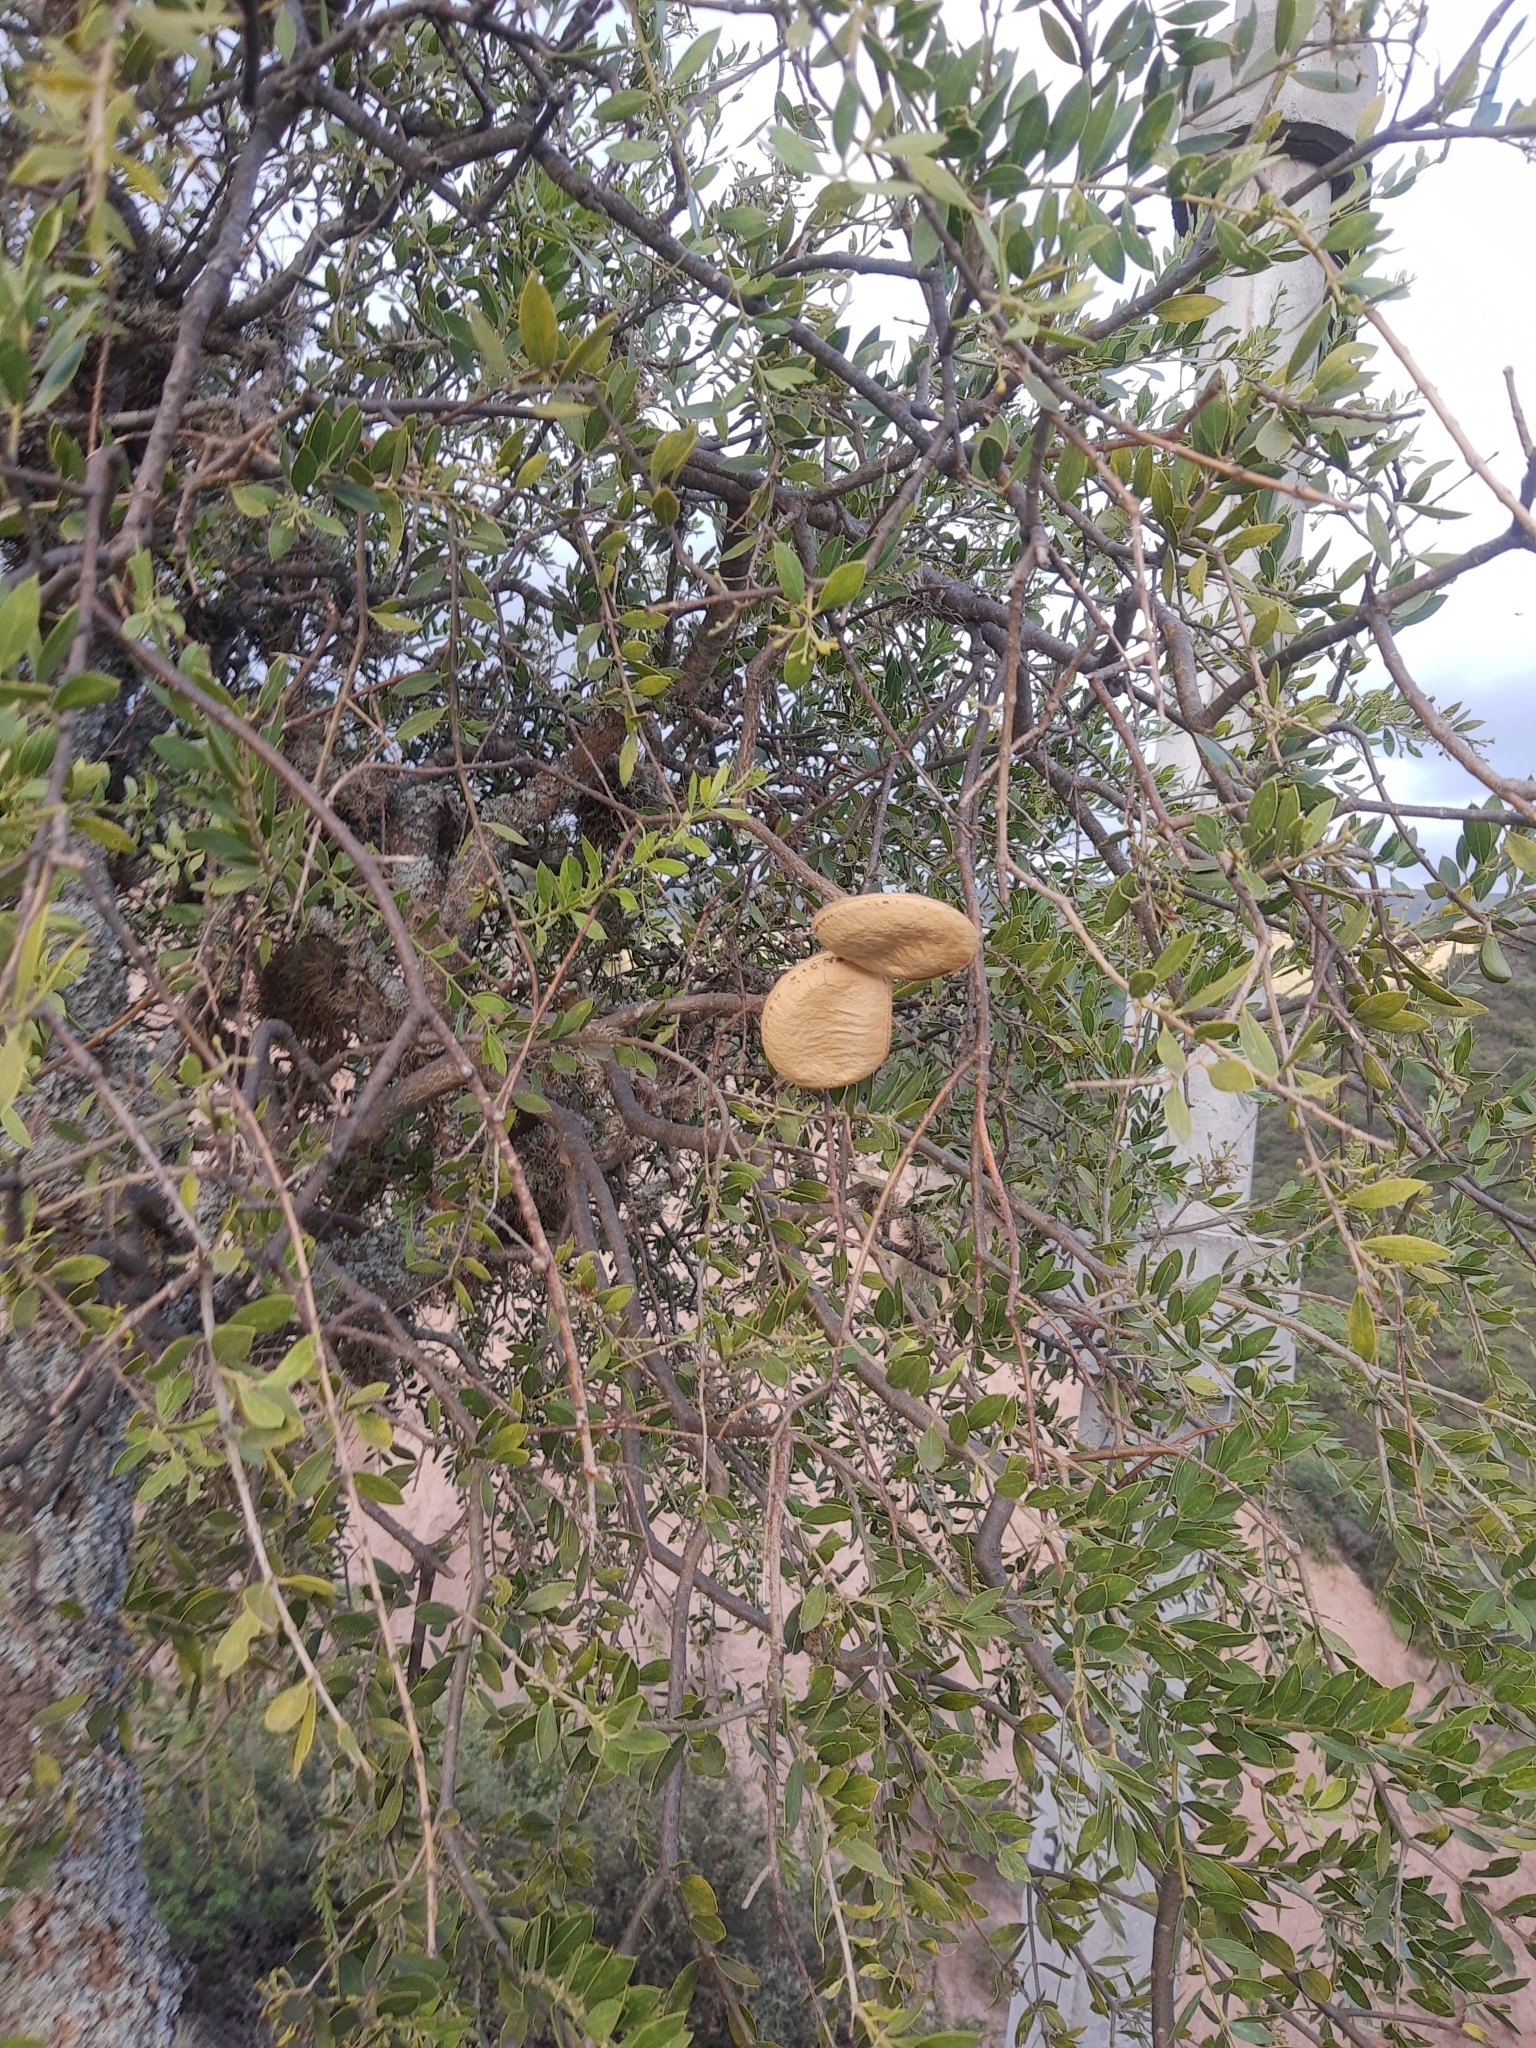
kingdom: Plantae
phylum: Tracheophyta
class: Magnoliopsida
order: Gentianales
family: Apocynaceae
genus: Aspidosperma
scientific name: Aspidosperma quebracho-blanco
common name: White quebracho
